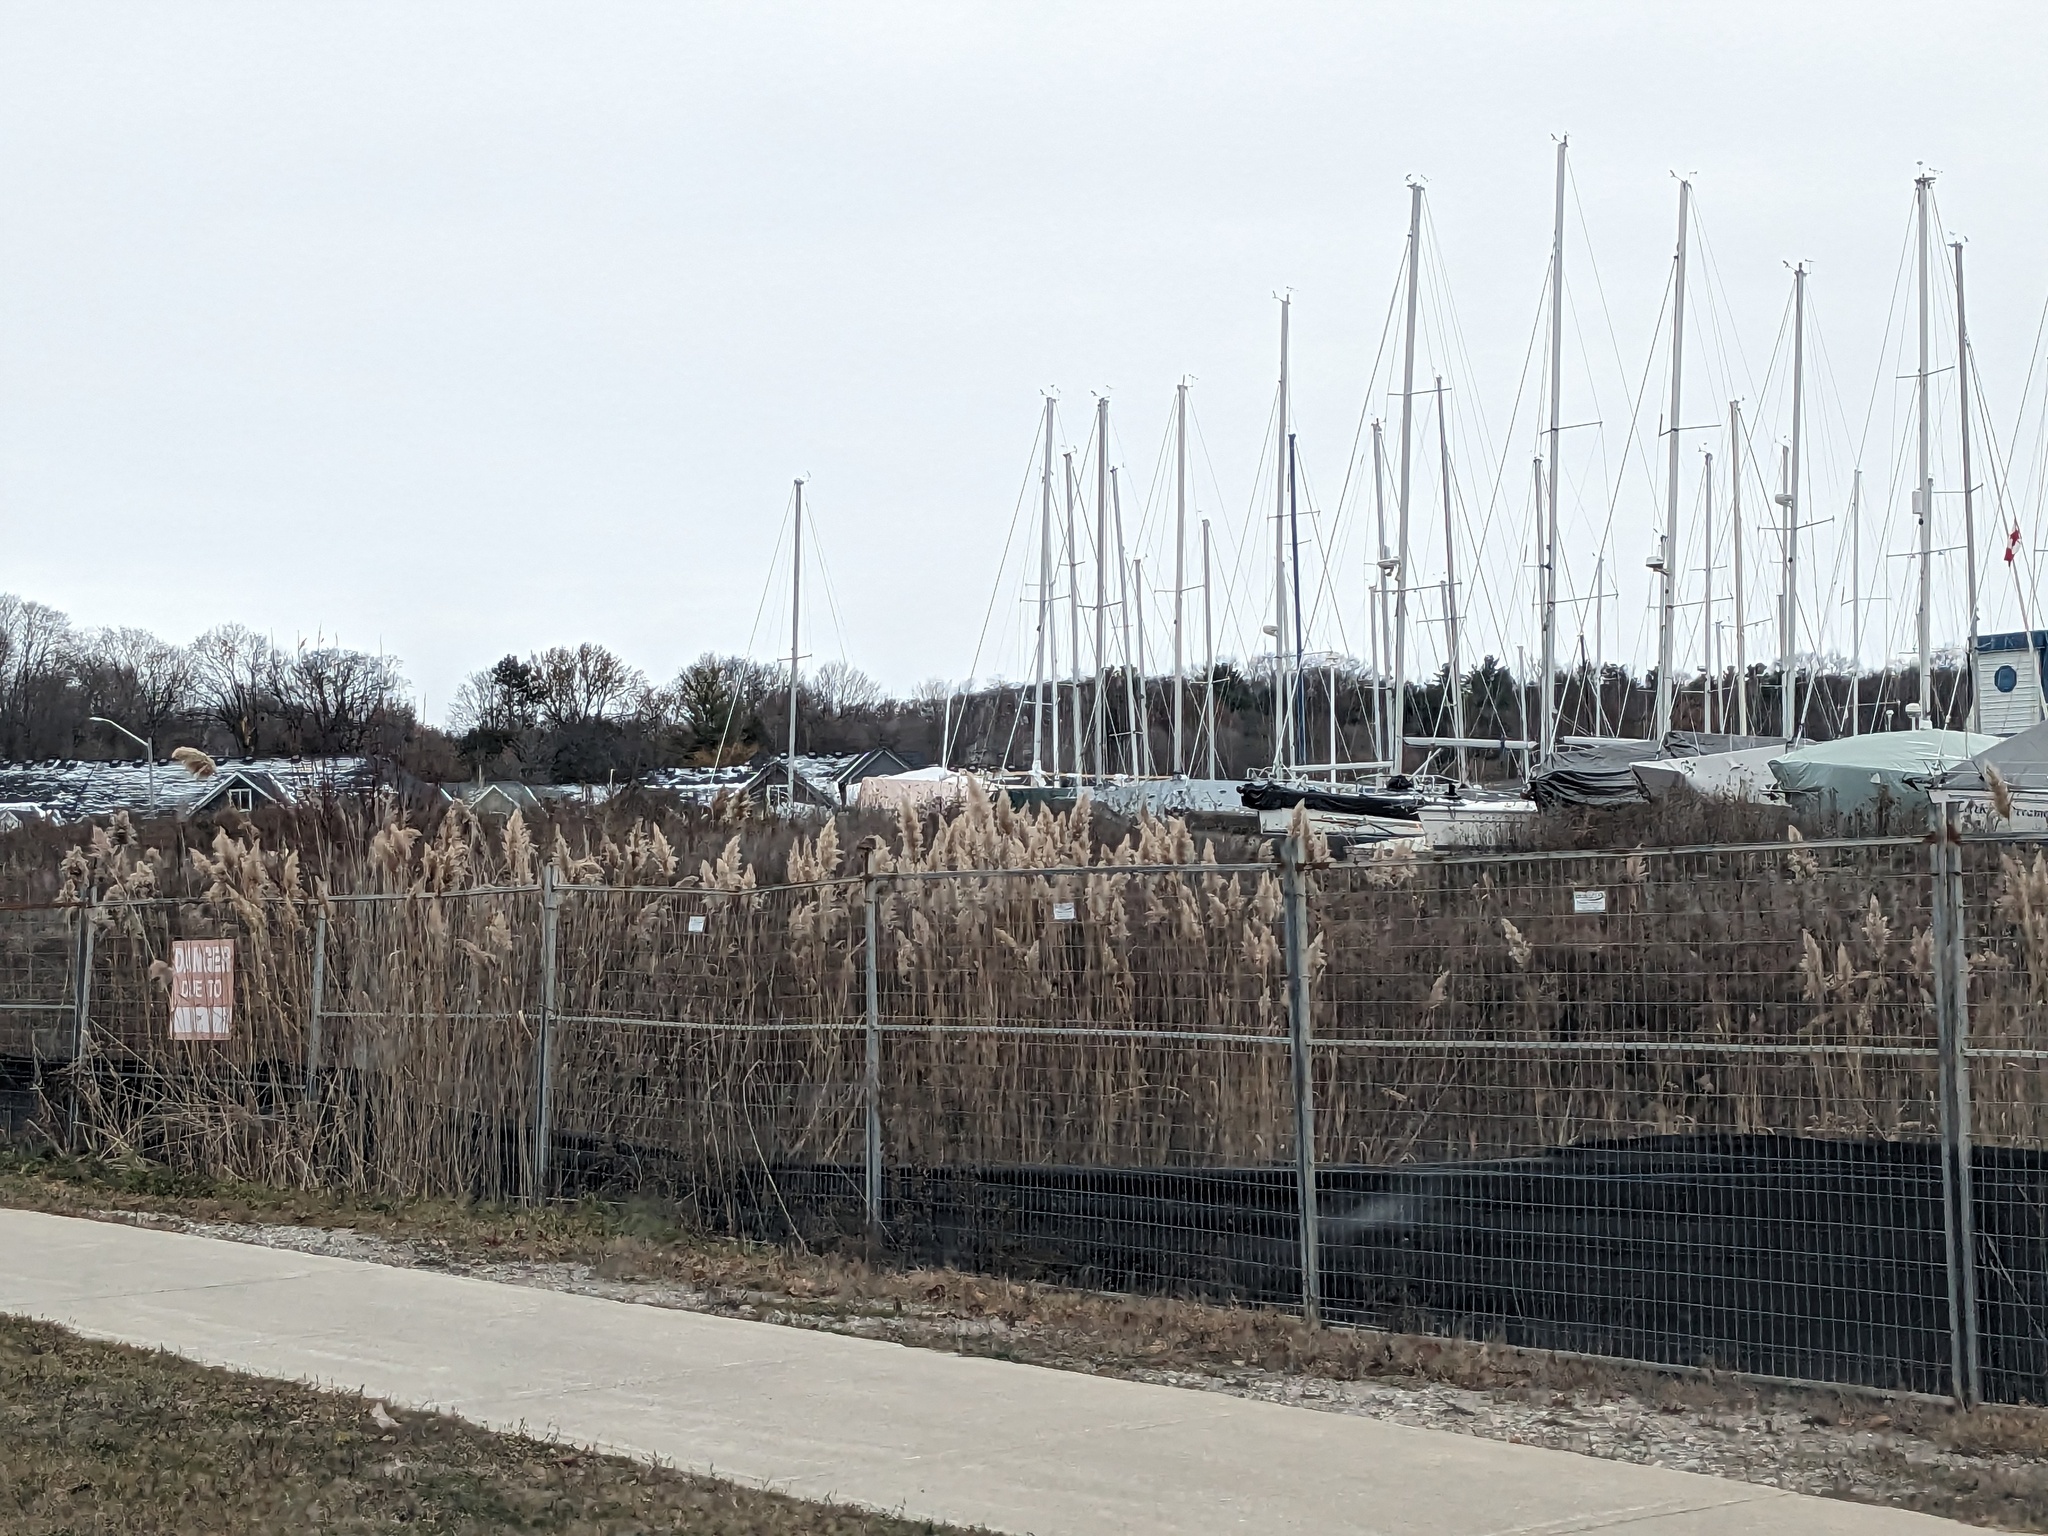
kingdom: Plantae
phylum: Tracheophyta
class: Liliopsida
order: Poales
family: Poaceae
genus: Phragmites
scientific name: Phragmites australis
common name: Common reed
